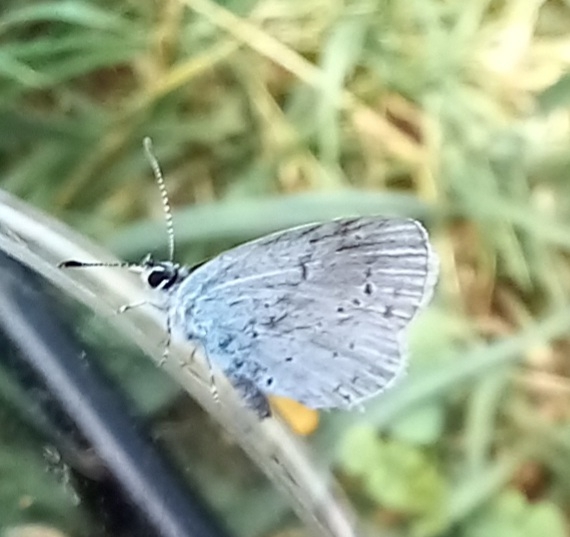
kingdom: Animalia
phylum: Arthropoda
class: Insecta
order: Lepidoptera
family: Lycaenidae
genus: Celastrina
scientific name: Celastrina argiolus
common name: Holly blue
